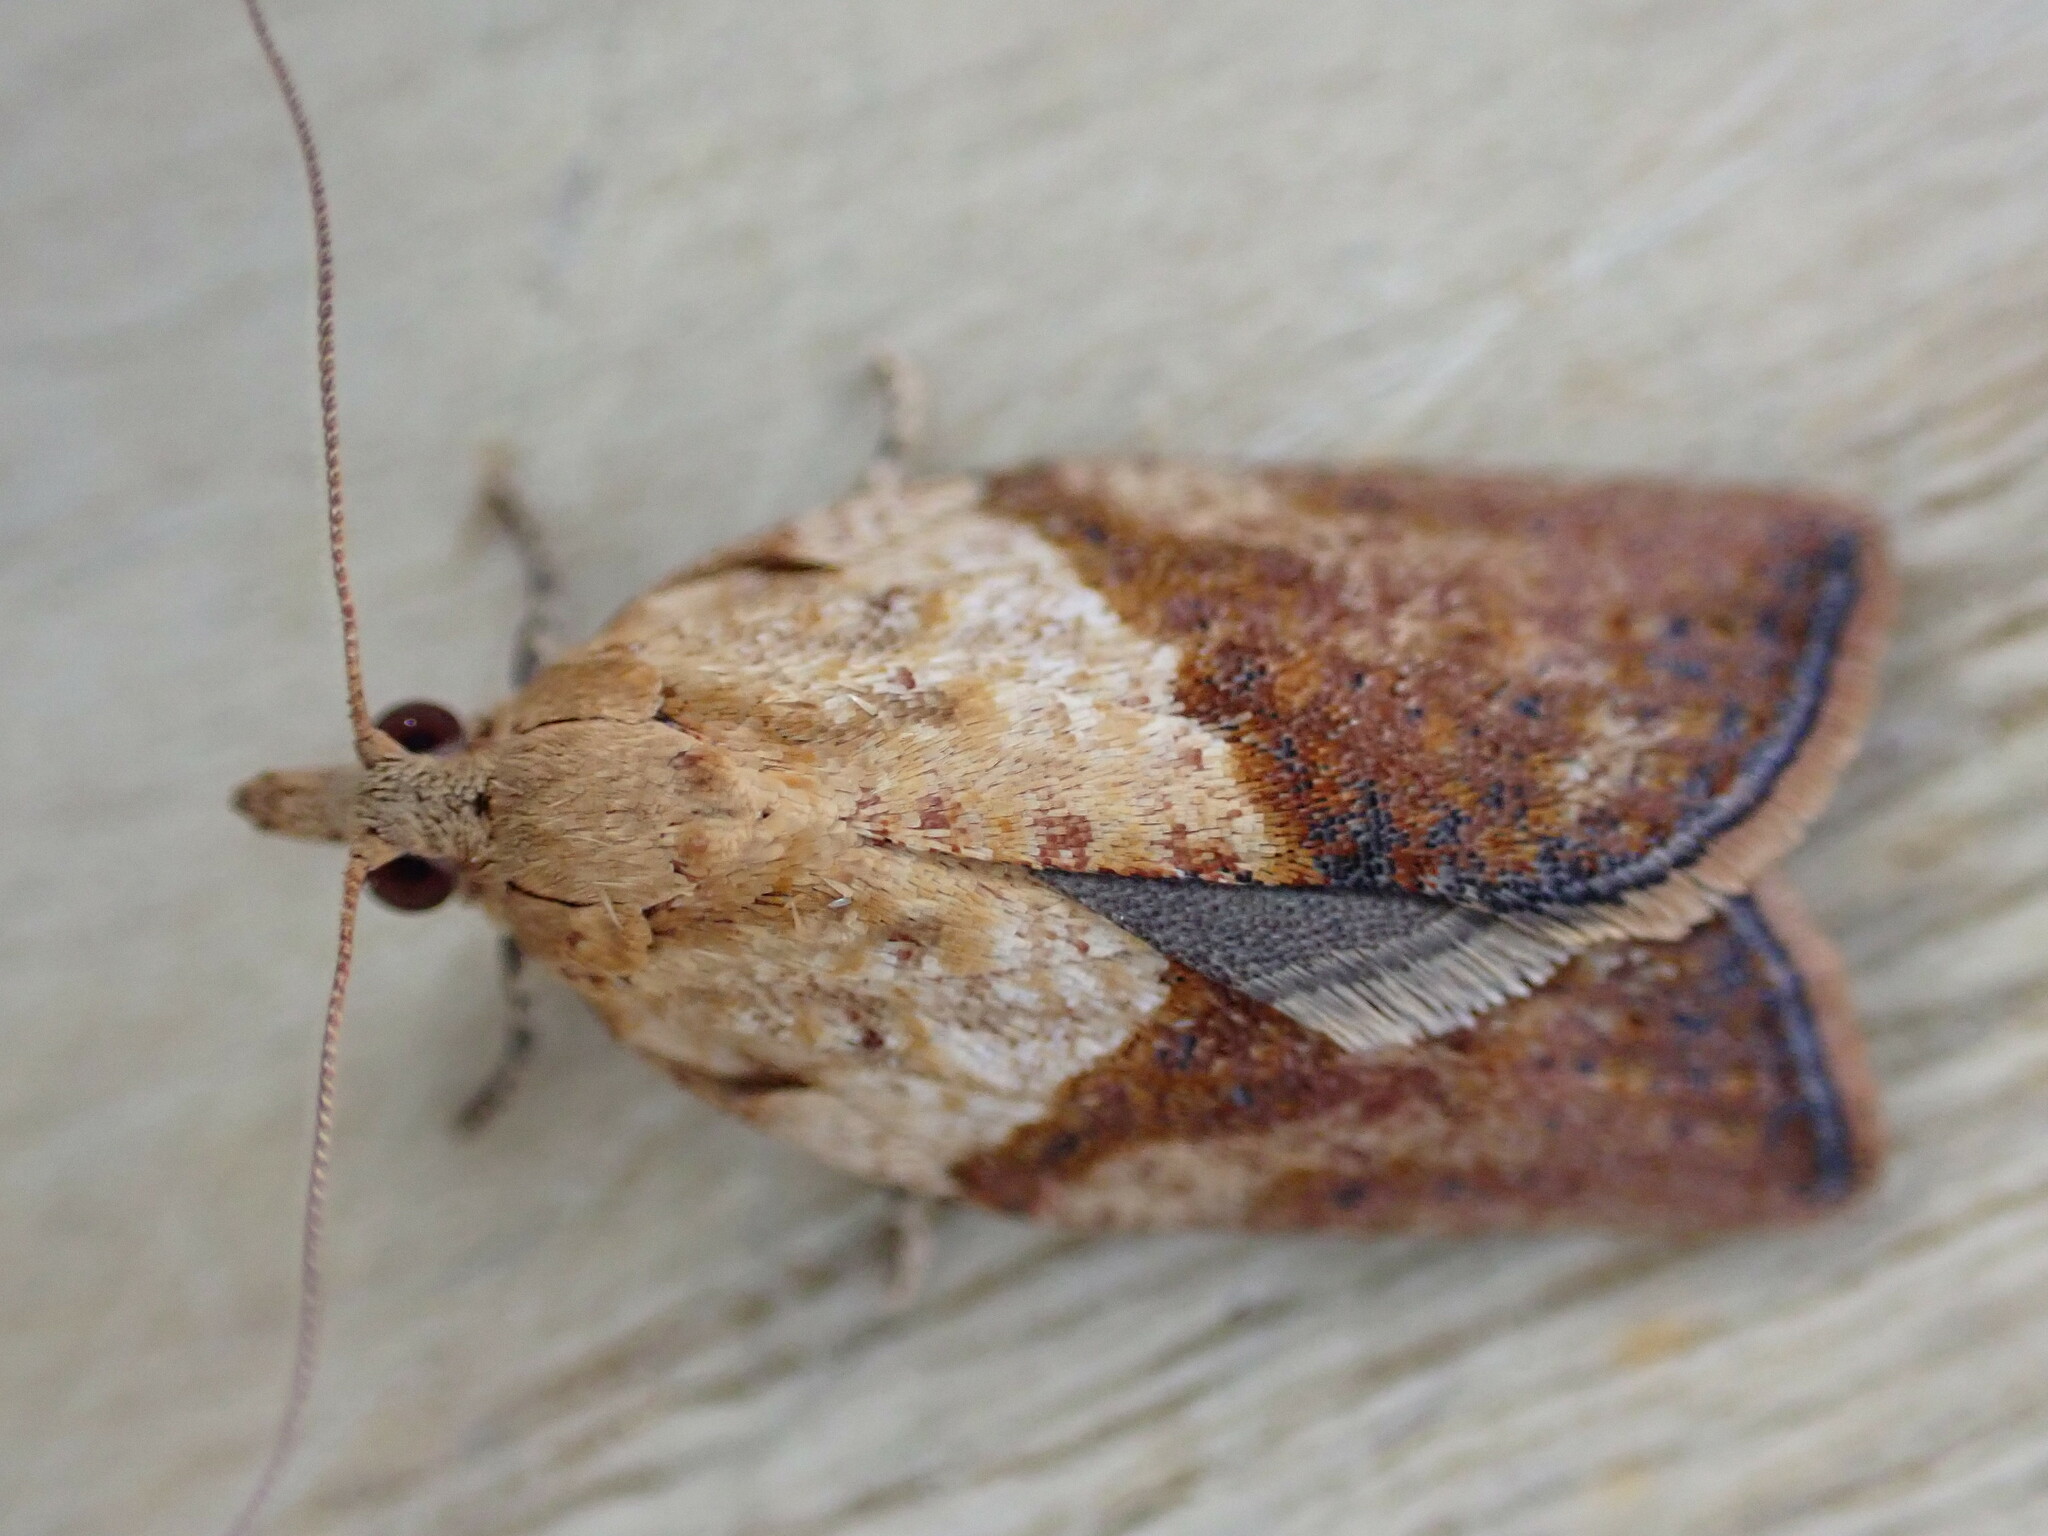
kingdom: Animalia
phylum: Arthropoda
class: Insecta
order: Lepidoptera
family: Tortricidae
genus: Epiphyas
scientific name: Epiphyas postvittana
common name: Light brown apple moth
